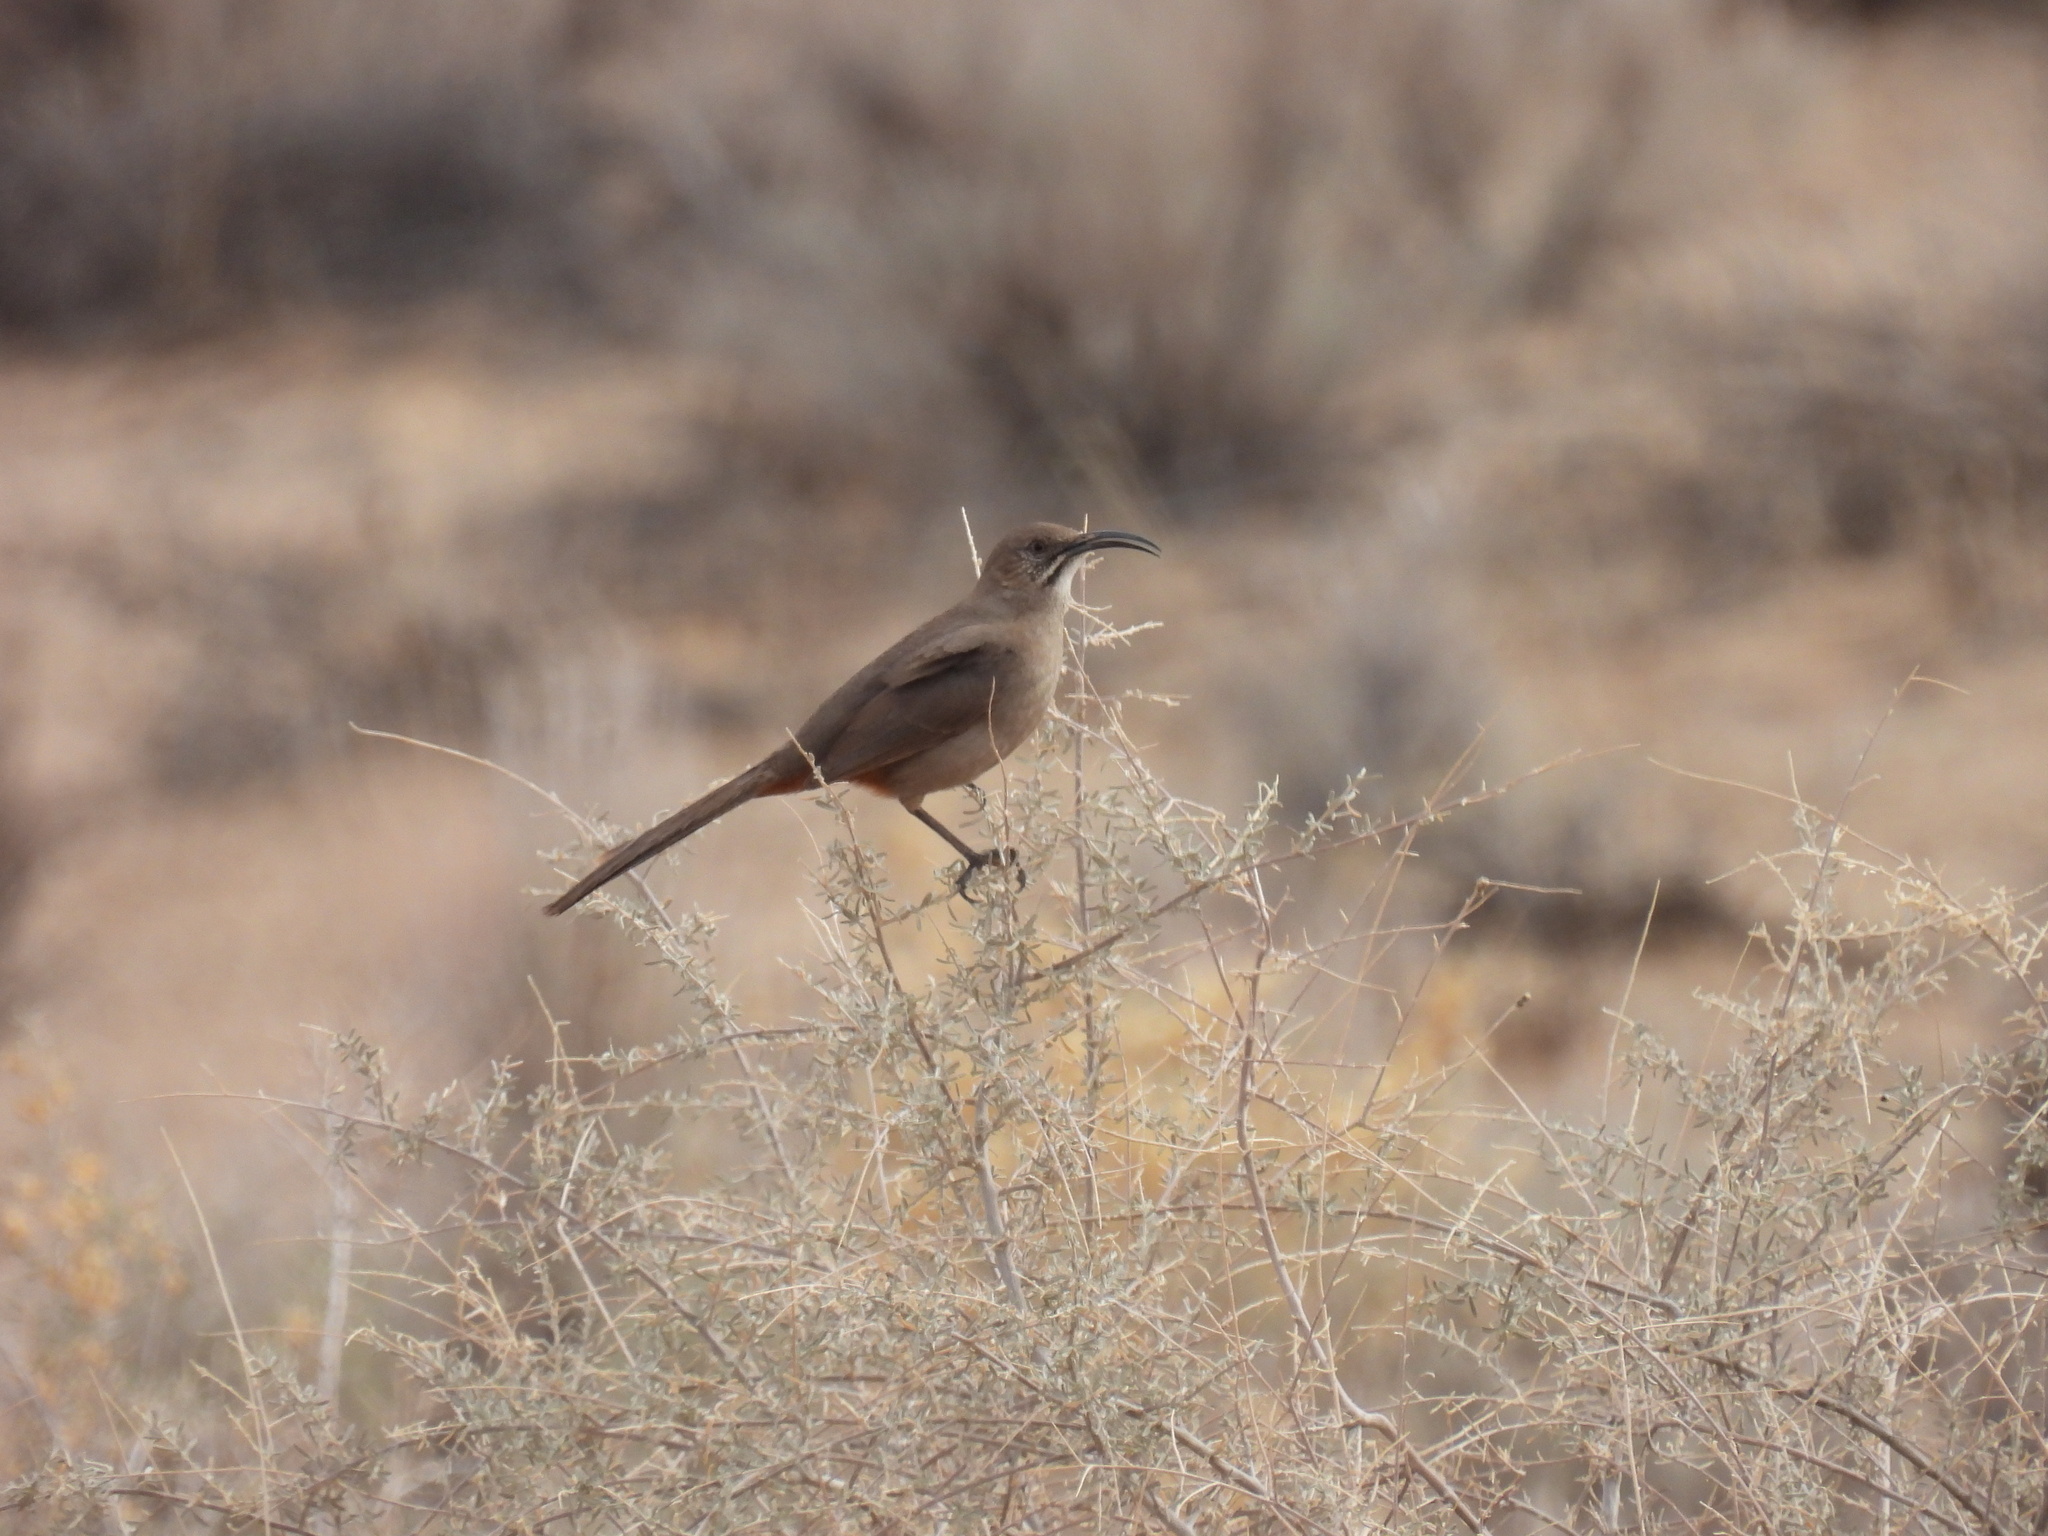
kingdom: Animalia
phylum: Chordata
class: Aves
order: Passeriformes
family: Mimidae
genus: Toxostoma
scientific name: Toxostoma crissale
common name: Crissal thrasher
